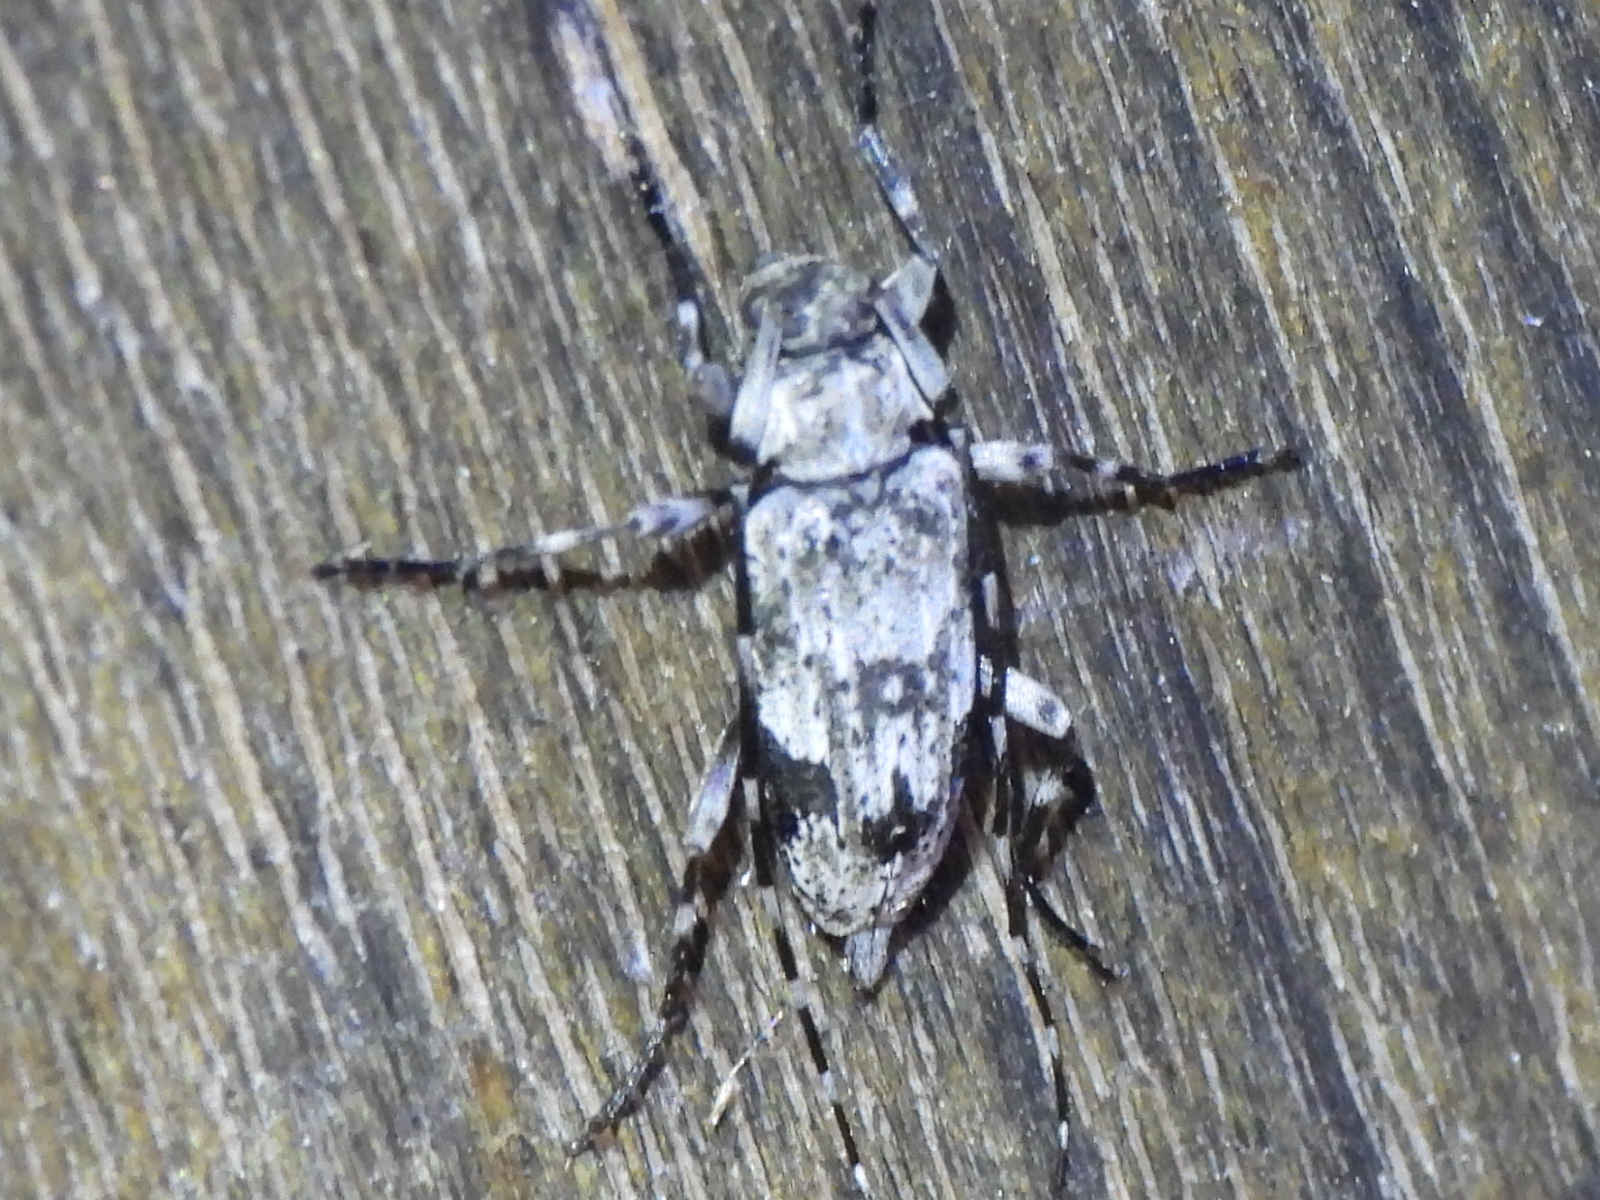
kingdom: Animalia
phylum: Arthropoda
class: Insecta
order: Coleoptera
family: Cerambycidae
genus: Eutrichillus
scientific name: Eutrichillus neomexicanus
